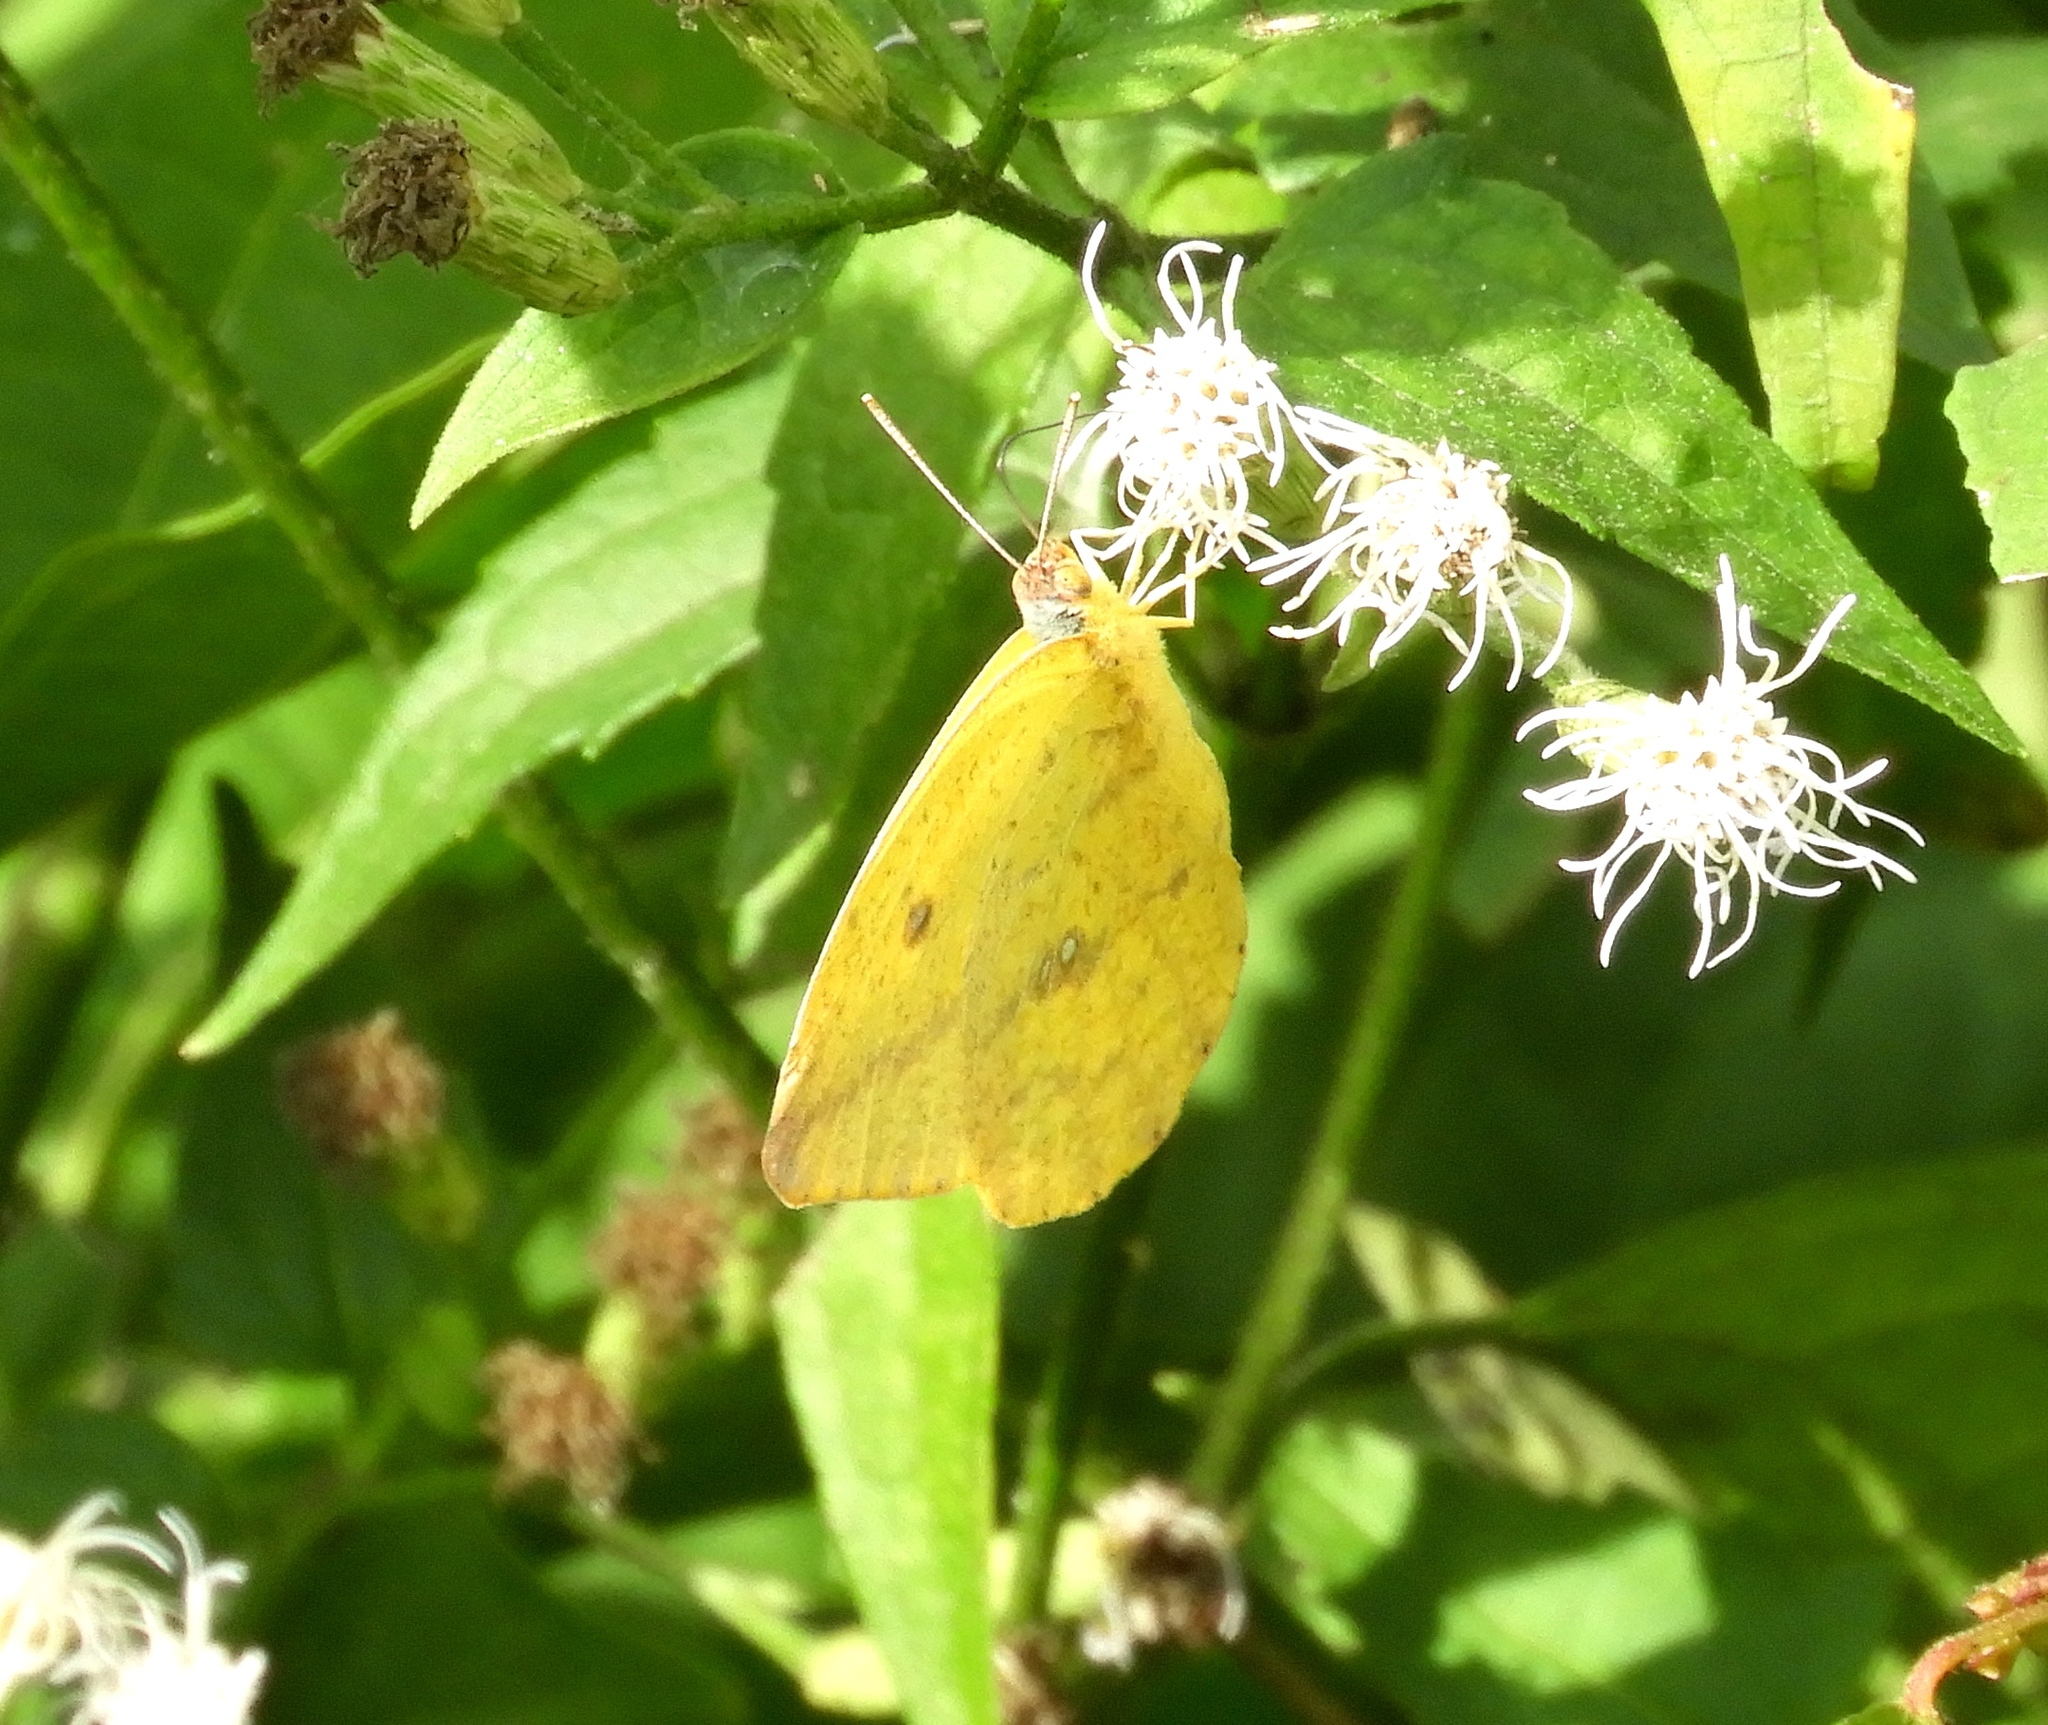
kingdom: Animalia
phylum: Arthropoda
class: Insecta
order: Lepidoptera
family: Pieridae
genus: Phoebis
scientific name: Phoebis agarithe
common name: Large orange sulphur
